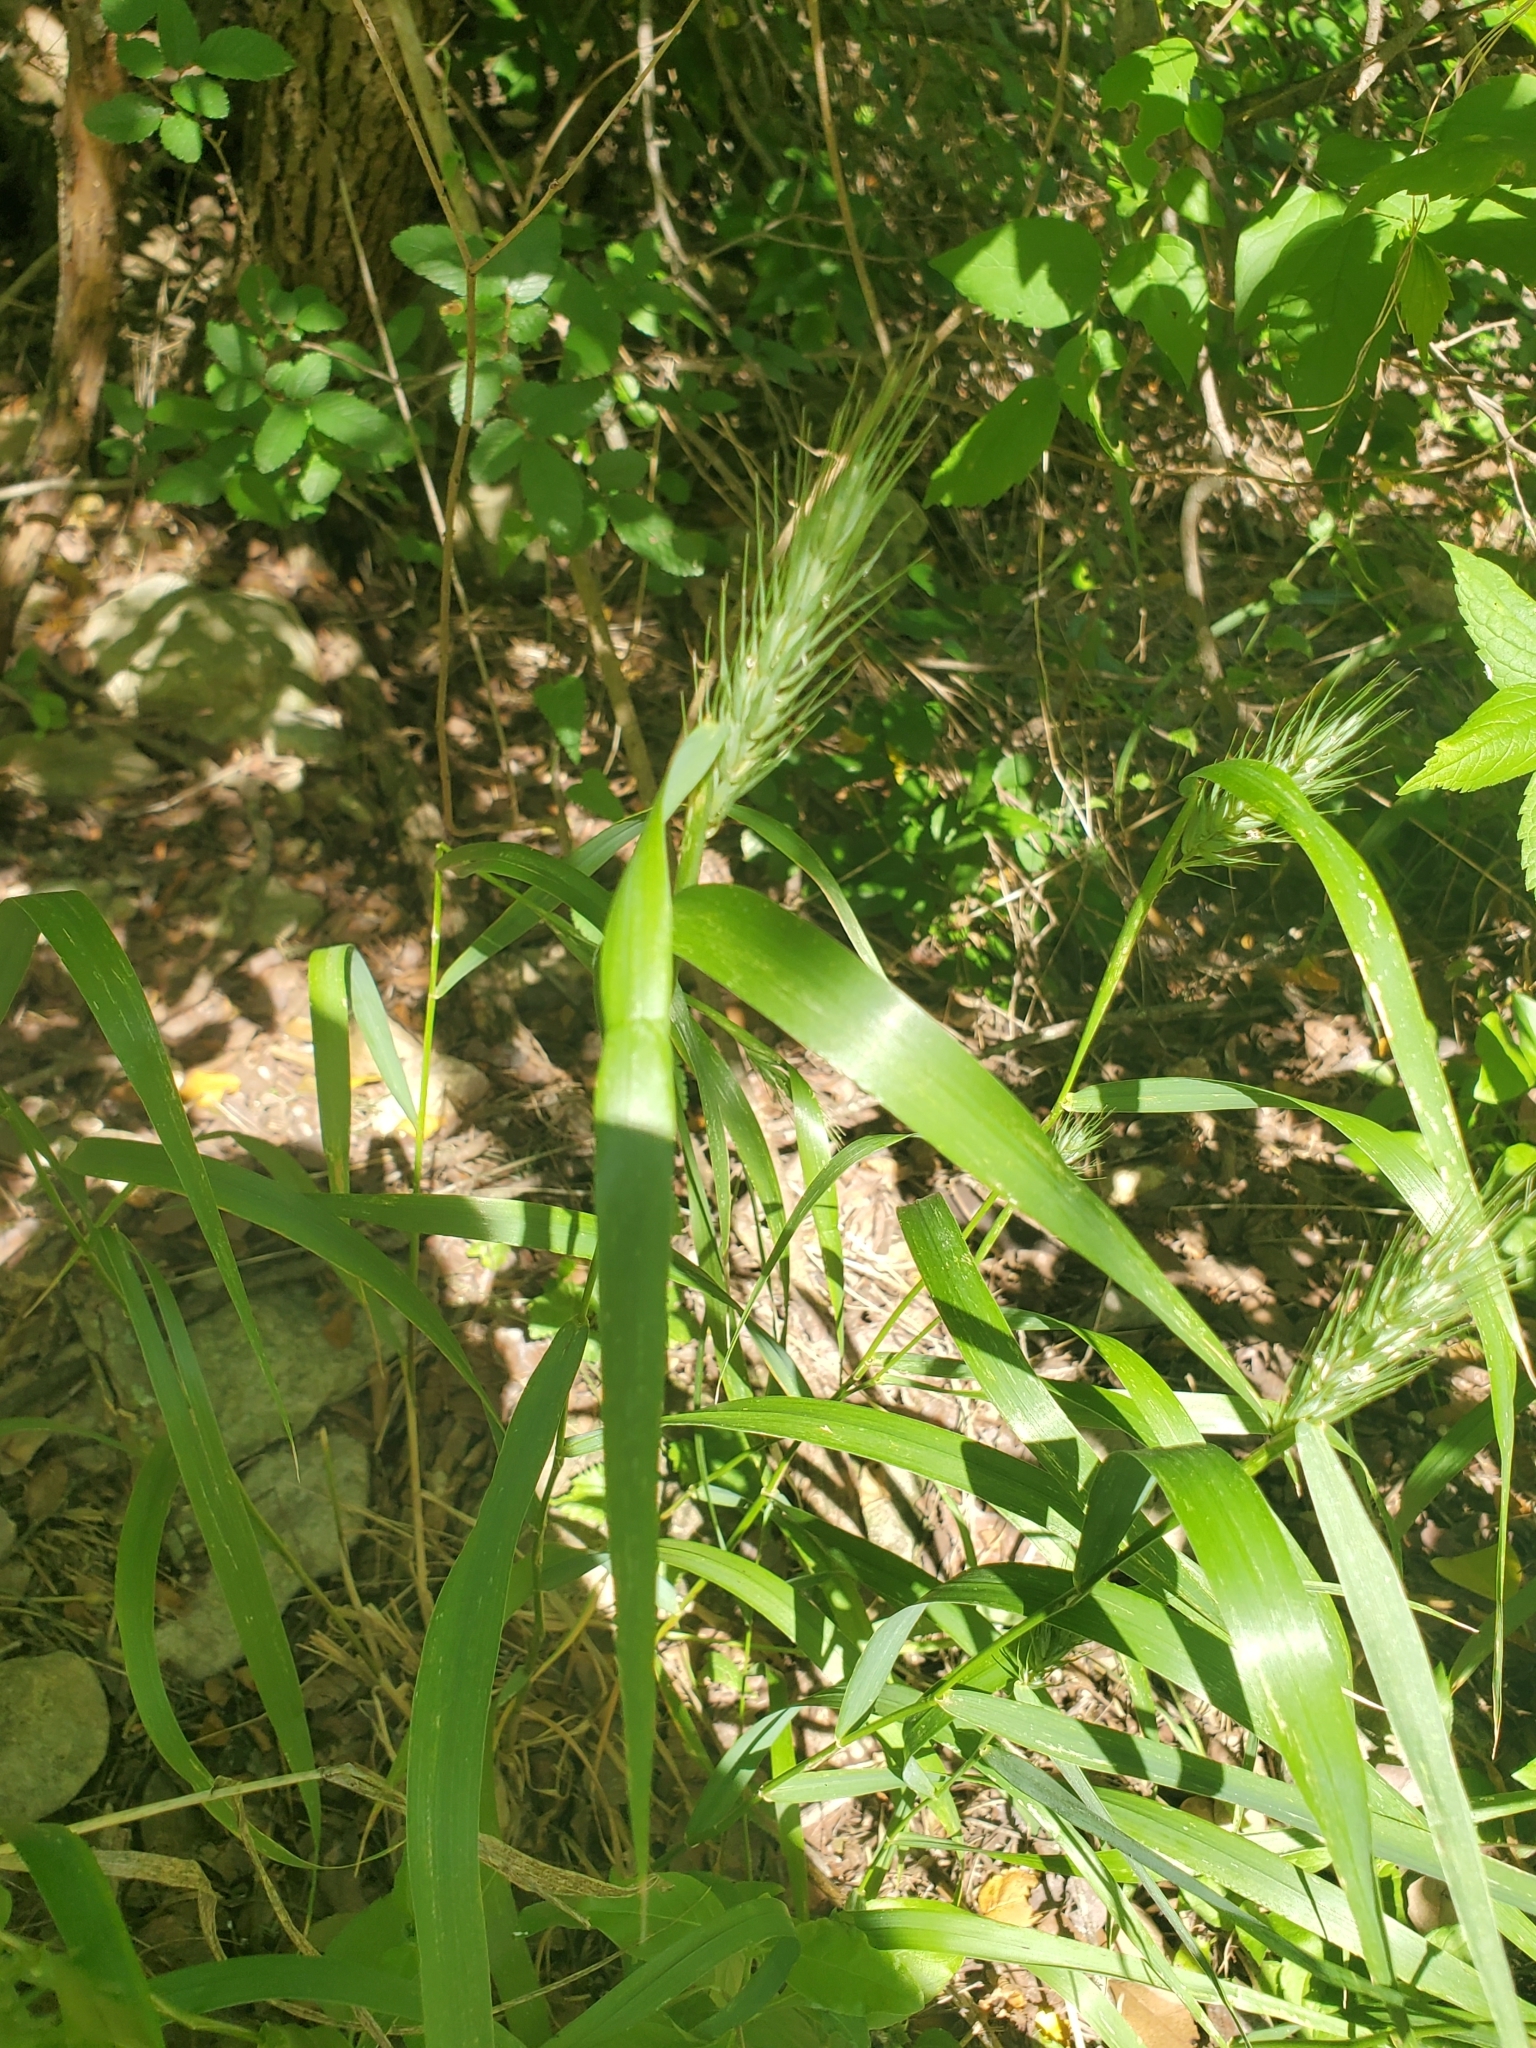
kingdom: Plantae
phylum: Tracheophyta
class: Liliopsida
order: Poales
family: Poaceae
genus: Elymus
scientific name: Elymus virginicus
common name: Common eastern wildrye
